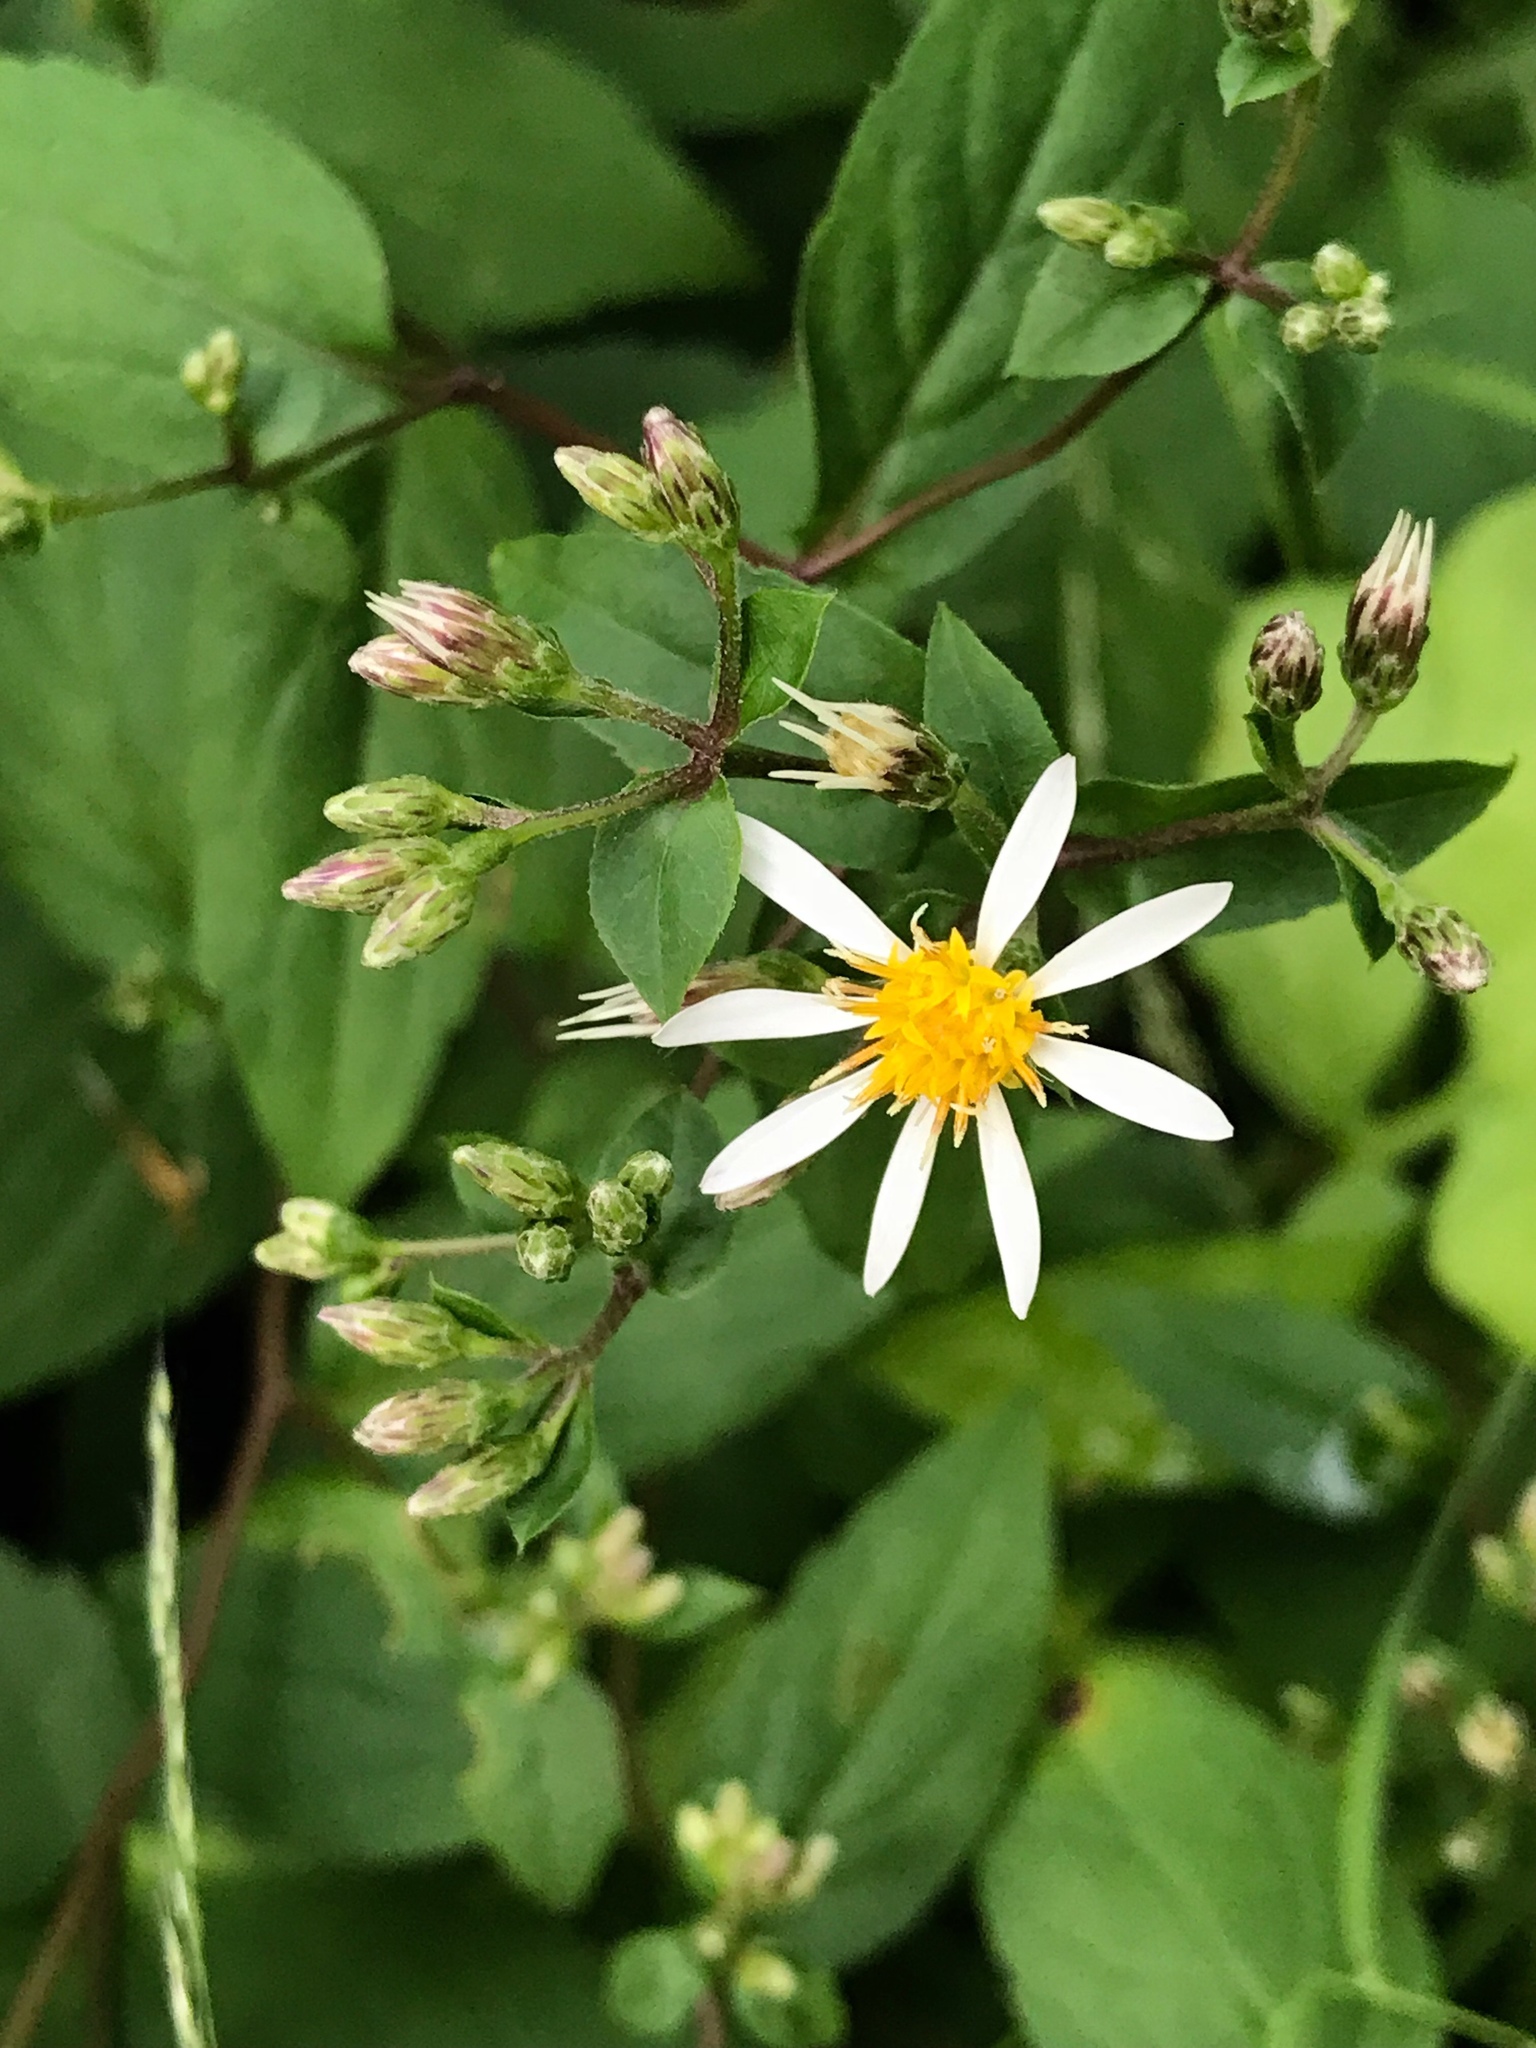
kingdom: Plantae
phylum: Tracheophyta
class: Magnoliopsida
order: Asterales
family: Asteraceae
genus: Eurybia
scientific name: Eurybia divaricata
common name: White wood aster
